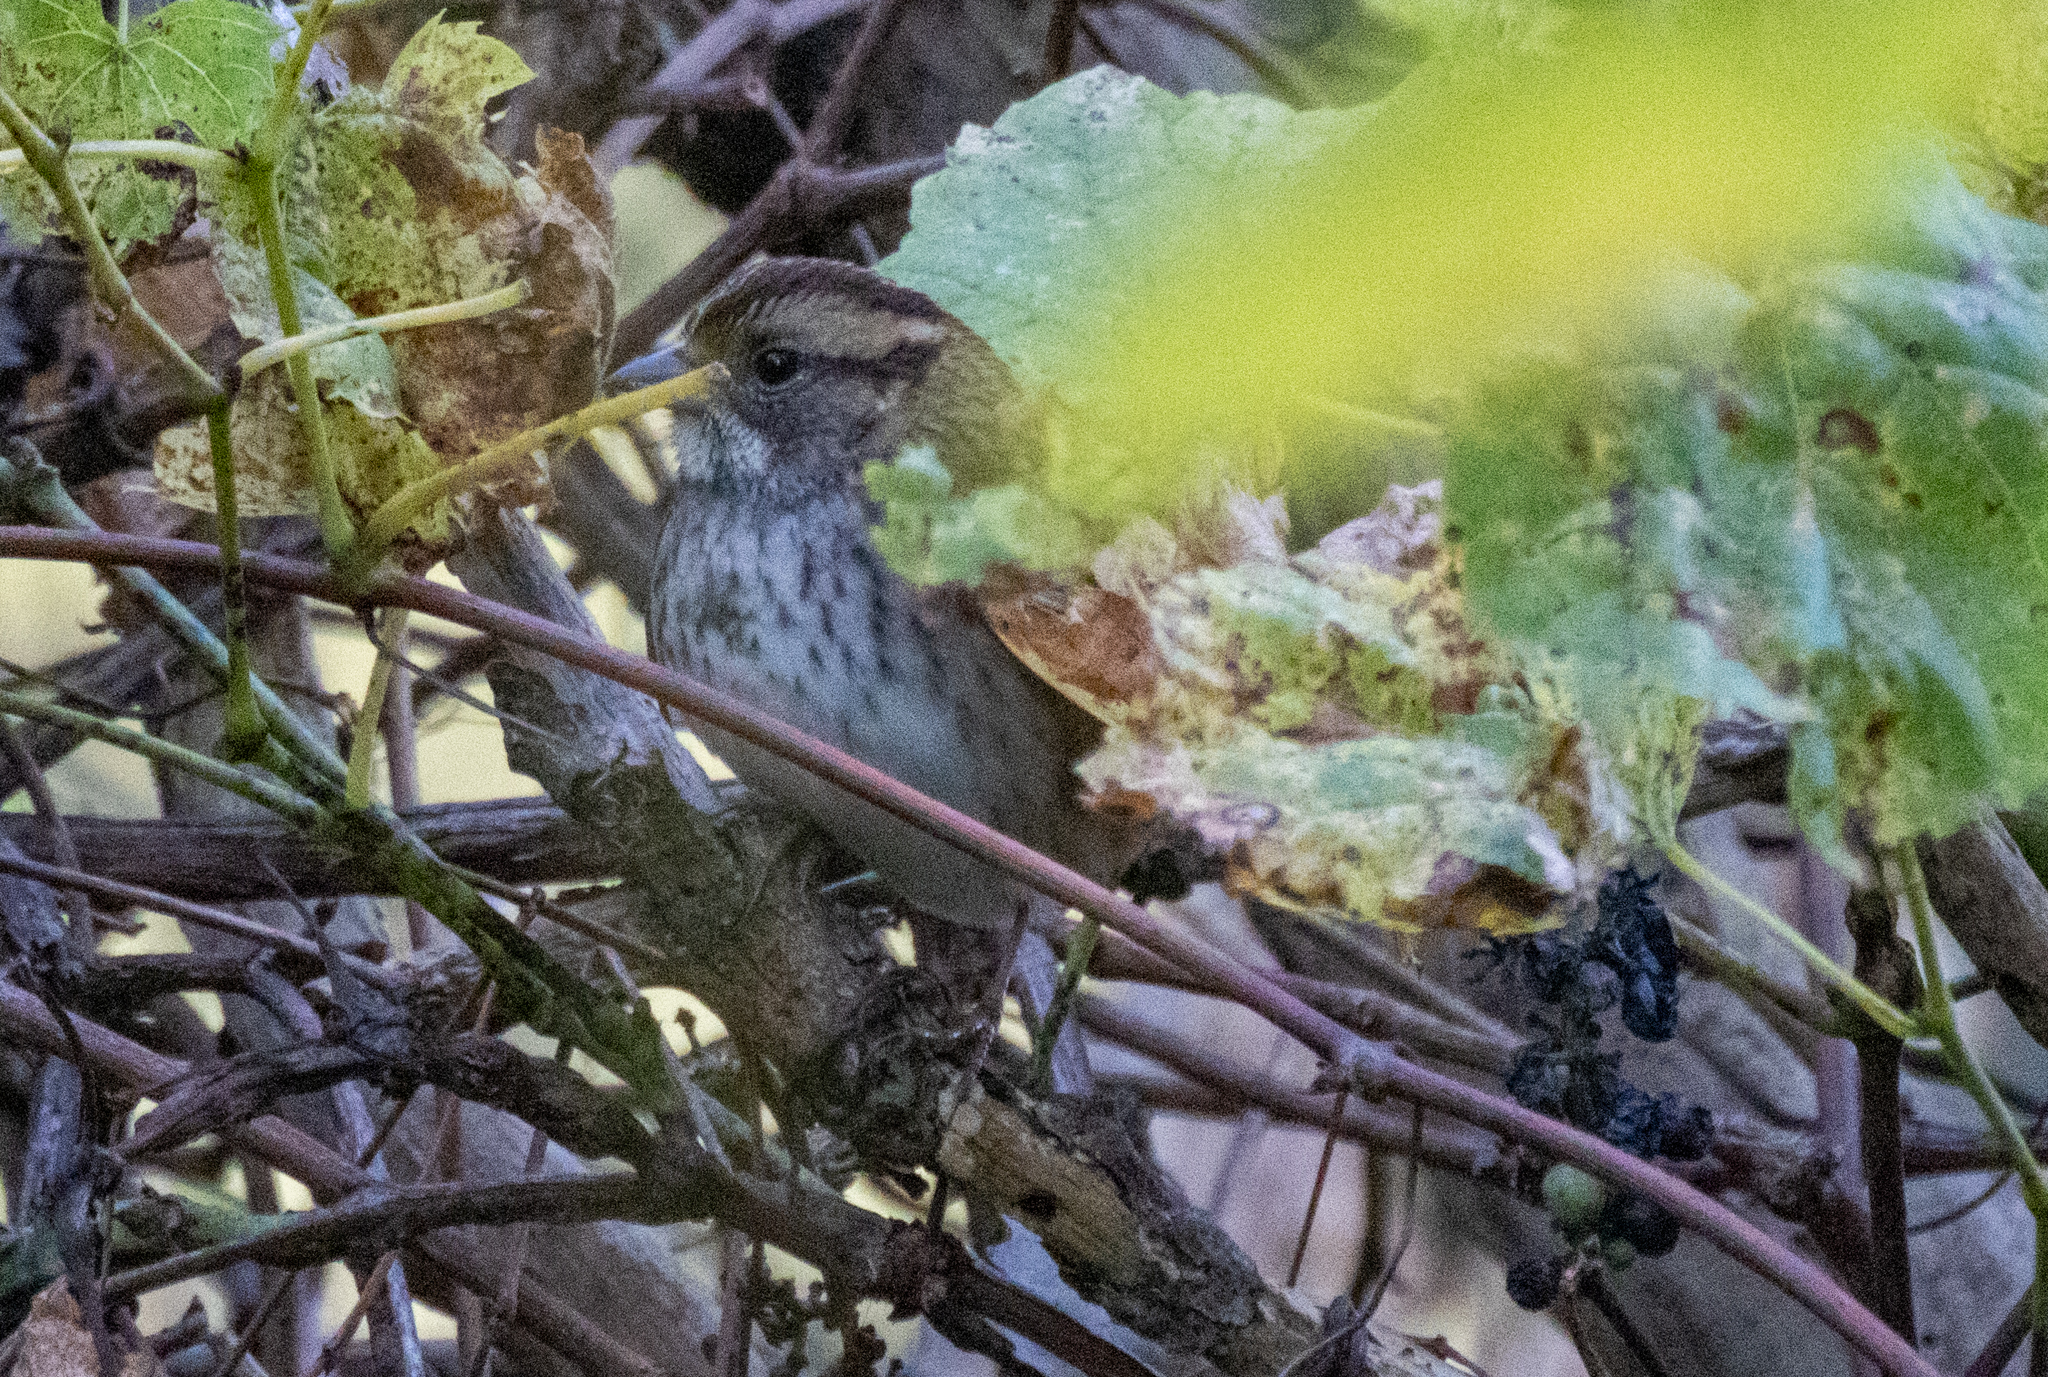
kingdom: Animalia
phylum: Chordata
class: Aves
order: Passeriformes
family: Passerellidae
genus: Zonotrichia
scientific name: Zonotrichia albicollis
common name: White-throated sparrow
